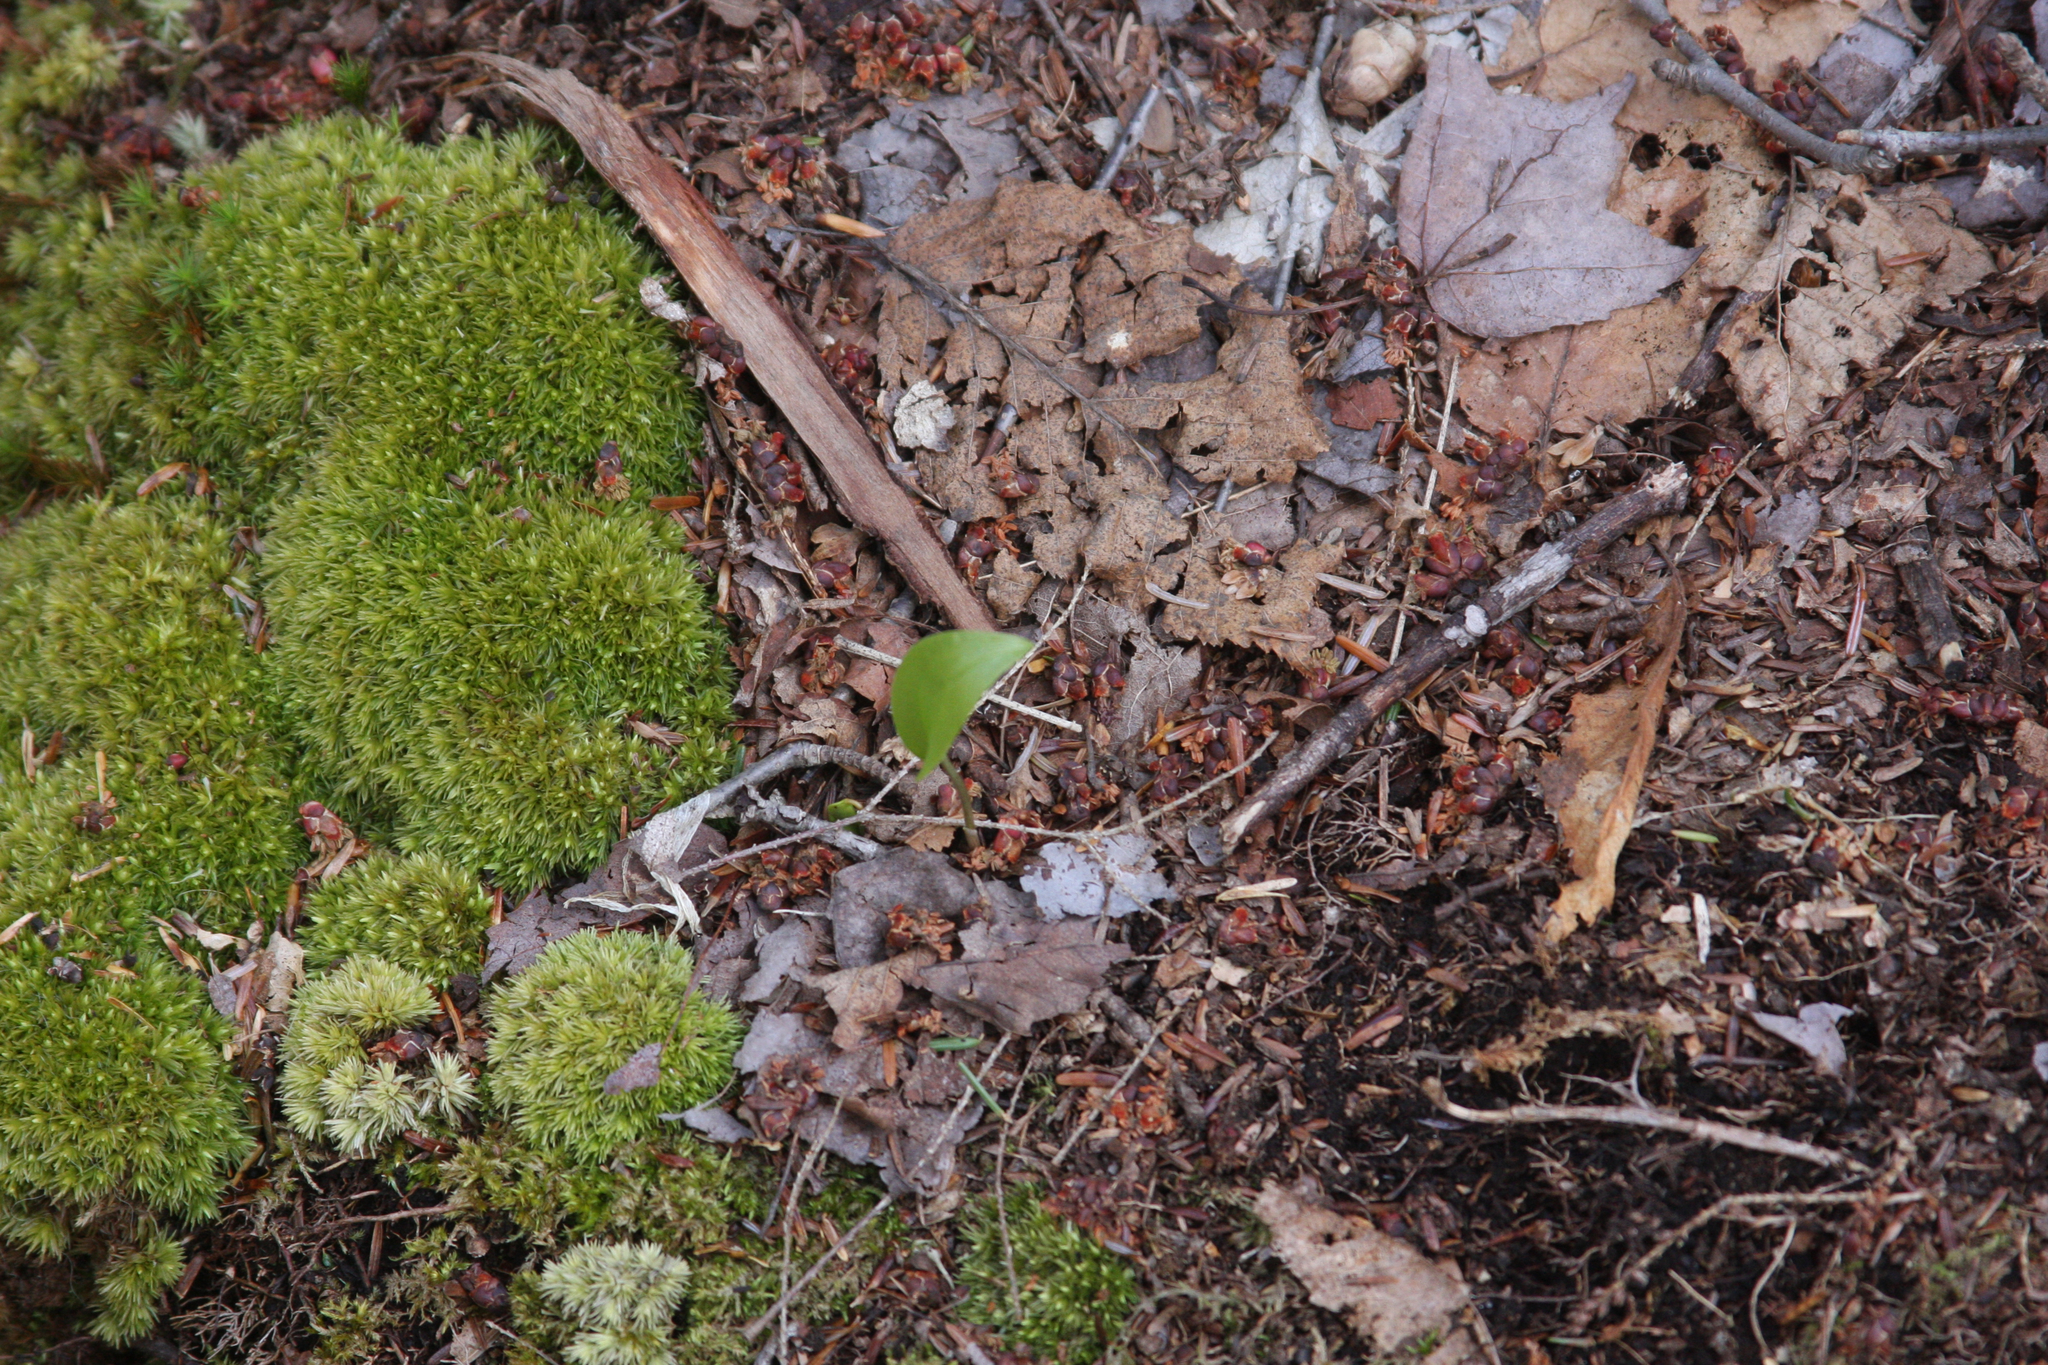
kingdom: Plantae
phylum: Tracheophyta
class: Liliopsida
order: Asparagales
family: Asparagaceae
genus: Maianthemum
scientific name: Maianthemum canadense
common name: False lily-of-the-valley
